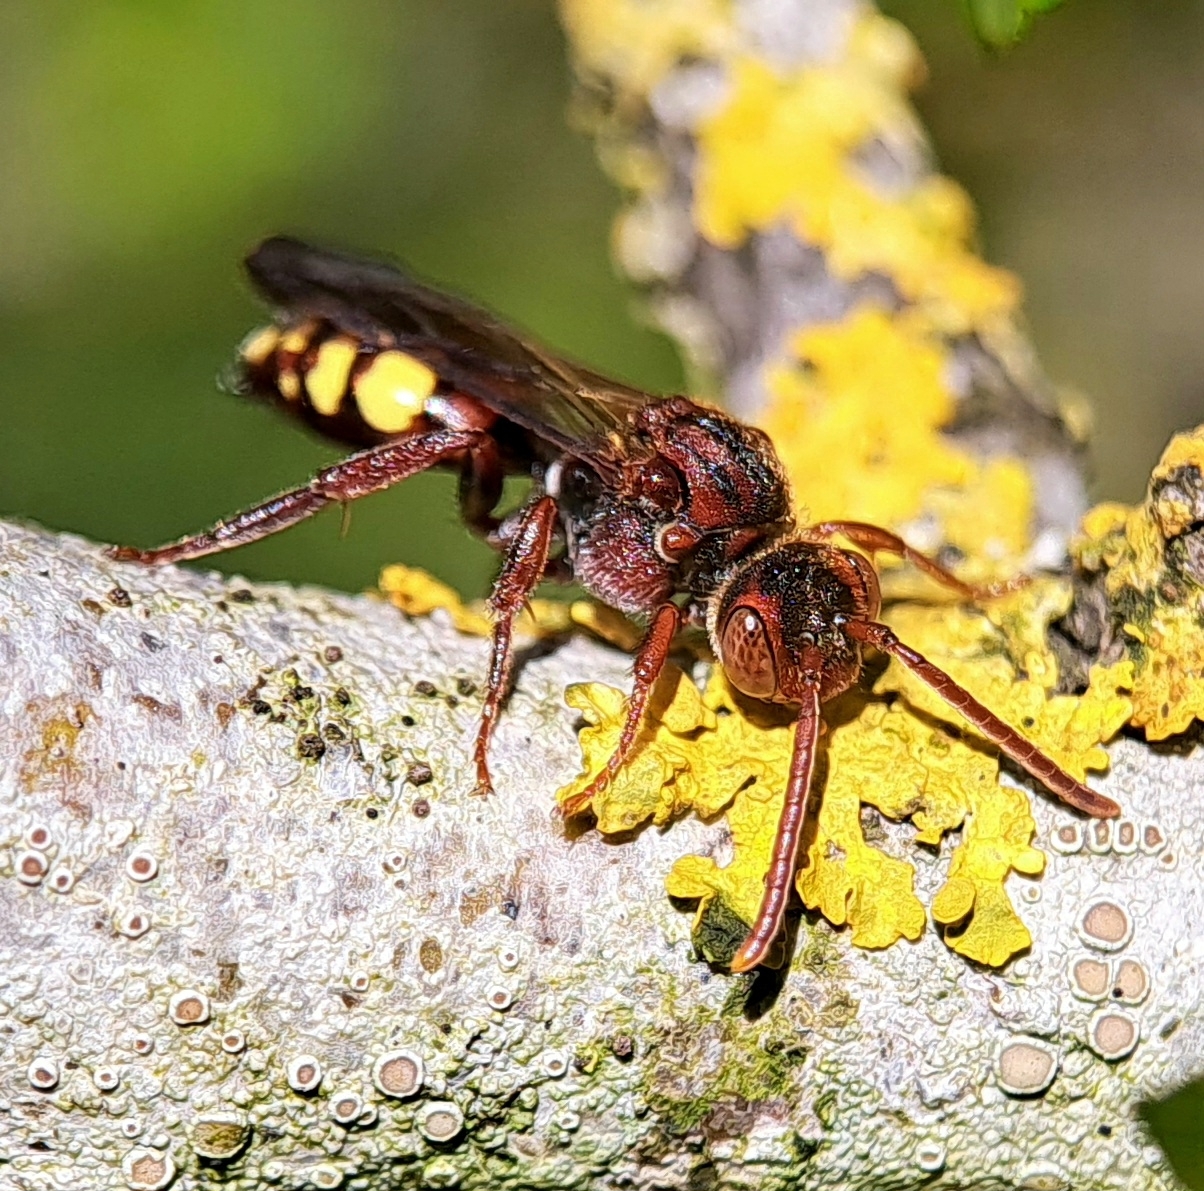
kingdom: Animalia
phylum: Arthropoda
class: Insecta
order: Hymenoptera
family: Apidae
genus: Nomada
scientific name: Nomada
